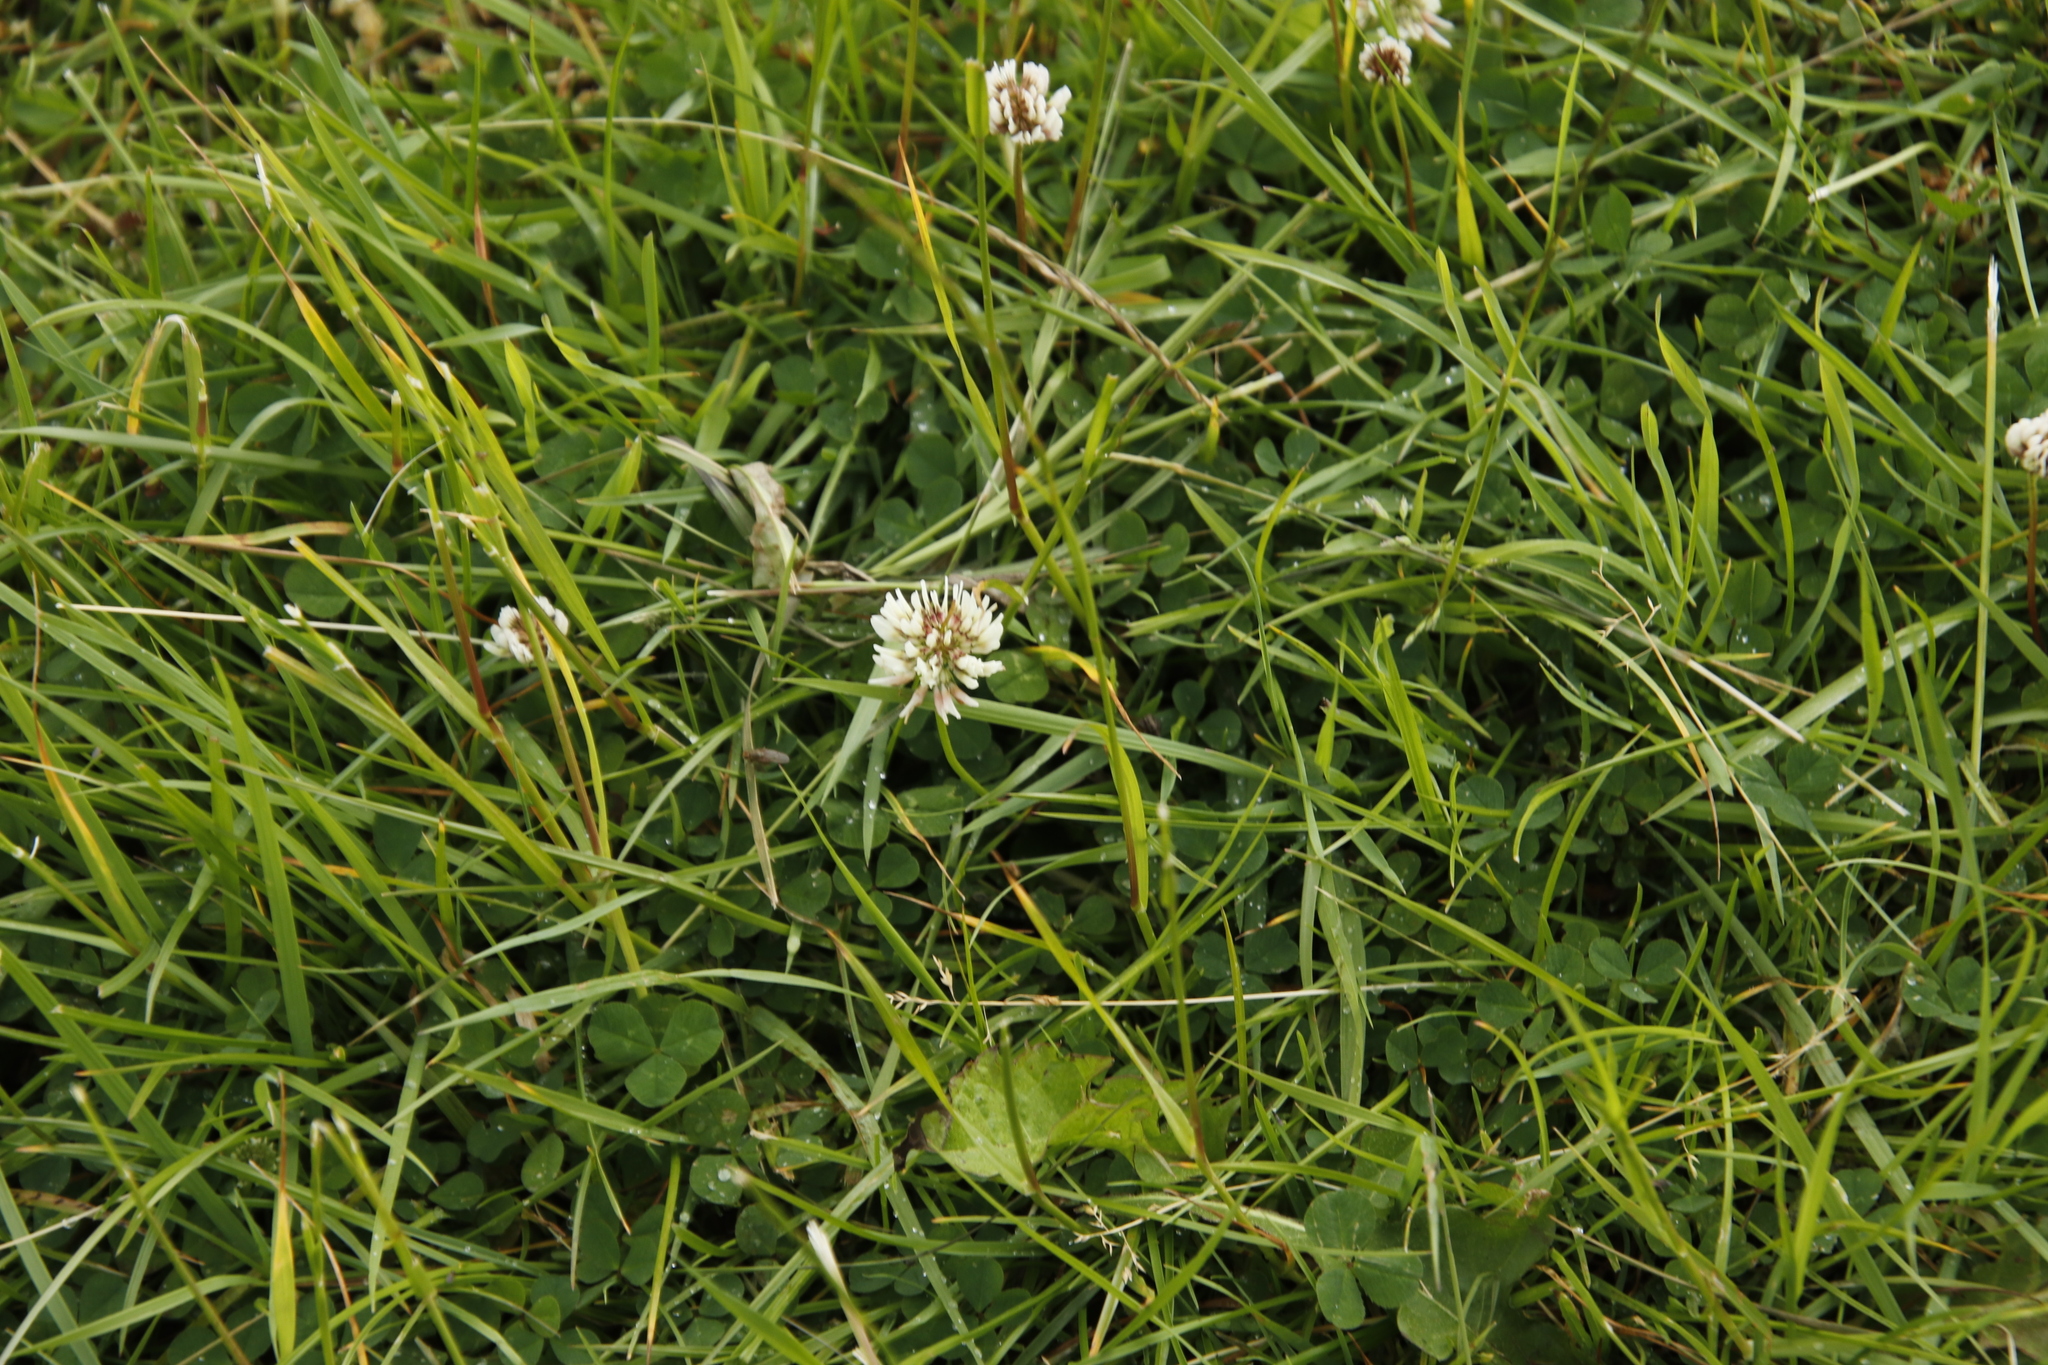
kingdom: Plantae
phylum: Tracheophyta
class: Magnoliopsida
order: Fabales
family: Fabaceae
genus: Trifolium
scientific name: Trifolium repens
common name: White clover
